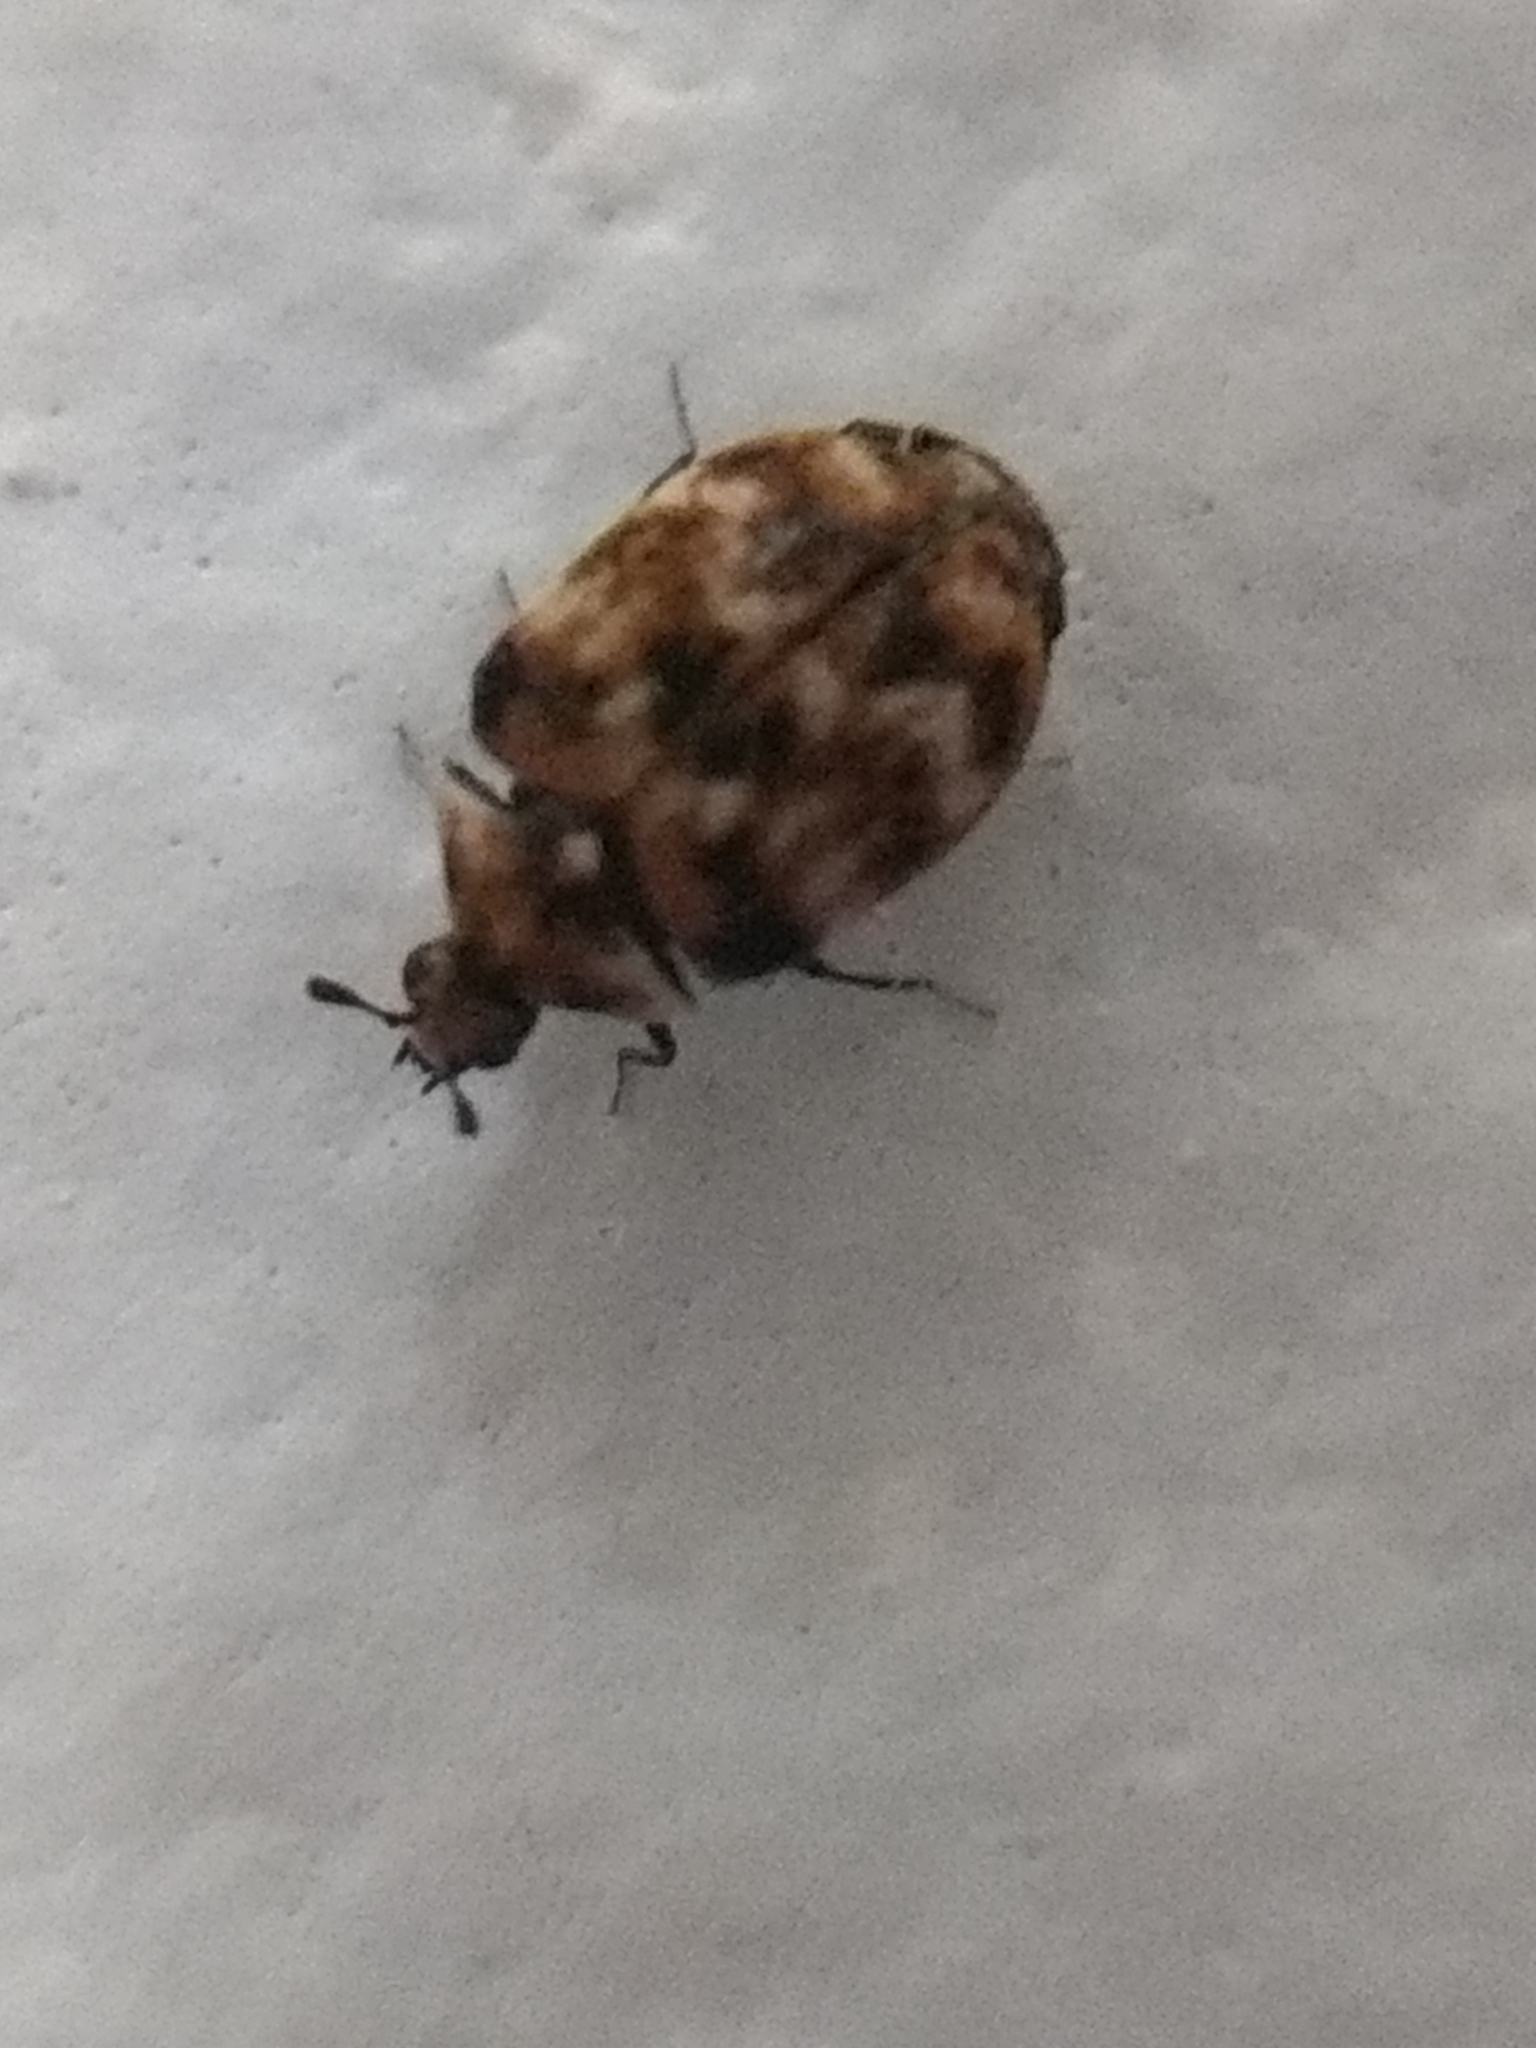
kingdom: Animalia
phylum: Arthropoda
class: Insecta
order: Coleoptera
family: Dermestidae
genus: Anthrenus
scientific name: Anthrenus verbasci
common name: Varied carpet beetle
